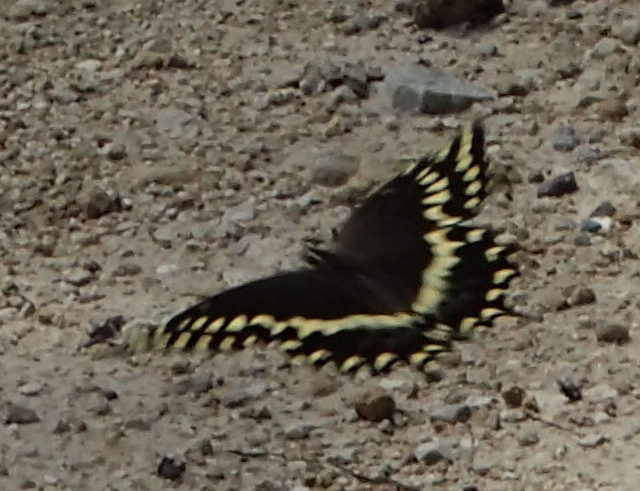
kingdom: Animalia
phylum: Arthropoda
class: Insecta
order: Lepidoptera
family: Papilionidae
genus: Papilio
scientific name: Papilio palamedes
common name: Palamedes swallowtail
